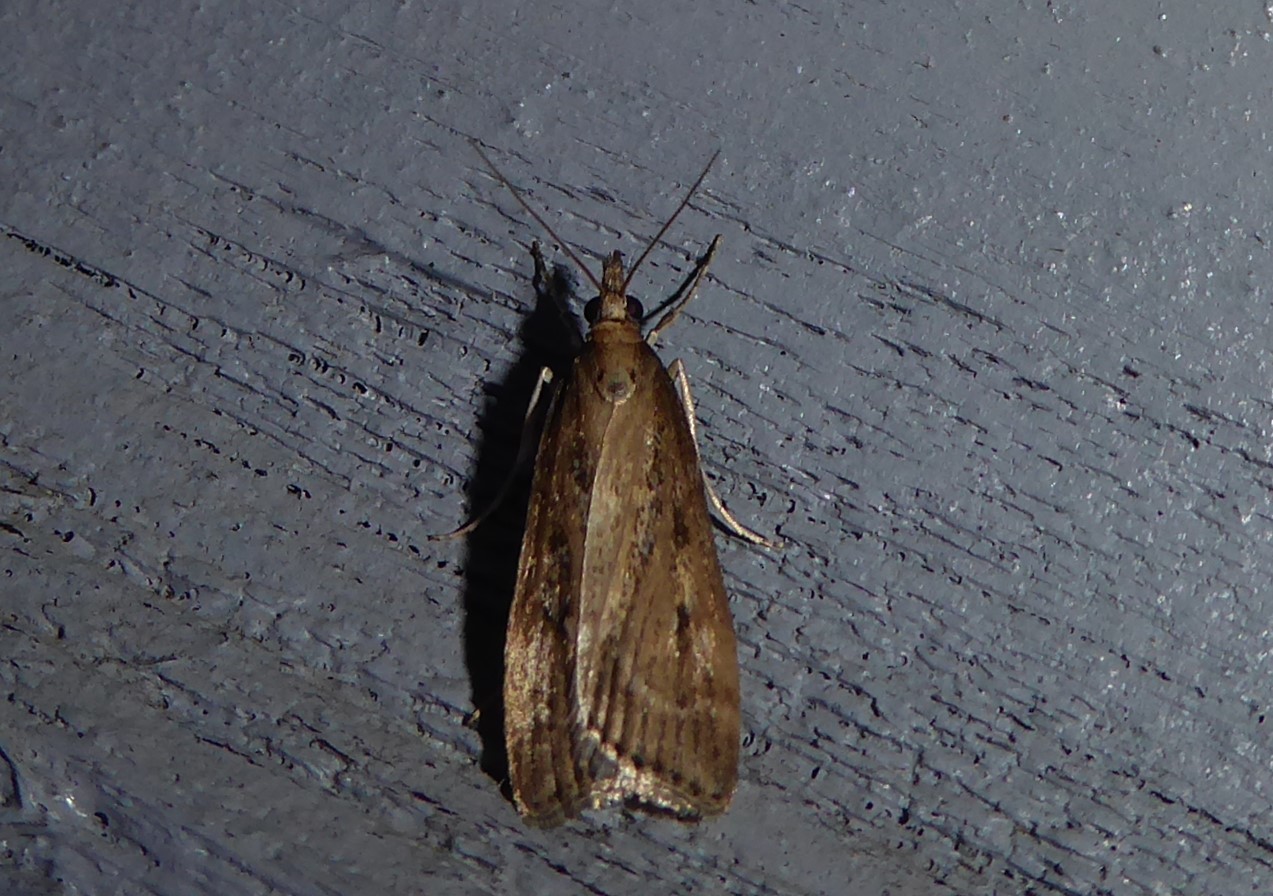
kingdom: Animalia
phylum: Arthropoda
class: Insecta
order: Lepidoptera
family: Crambidae
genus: Eudonia
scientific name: Eudonia octophora
